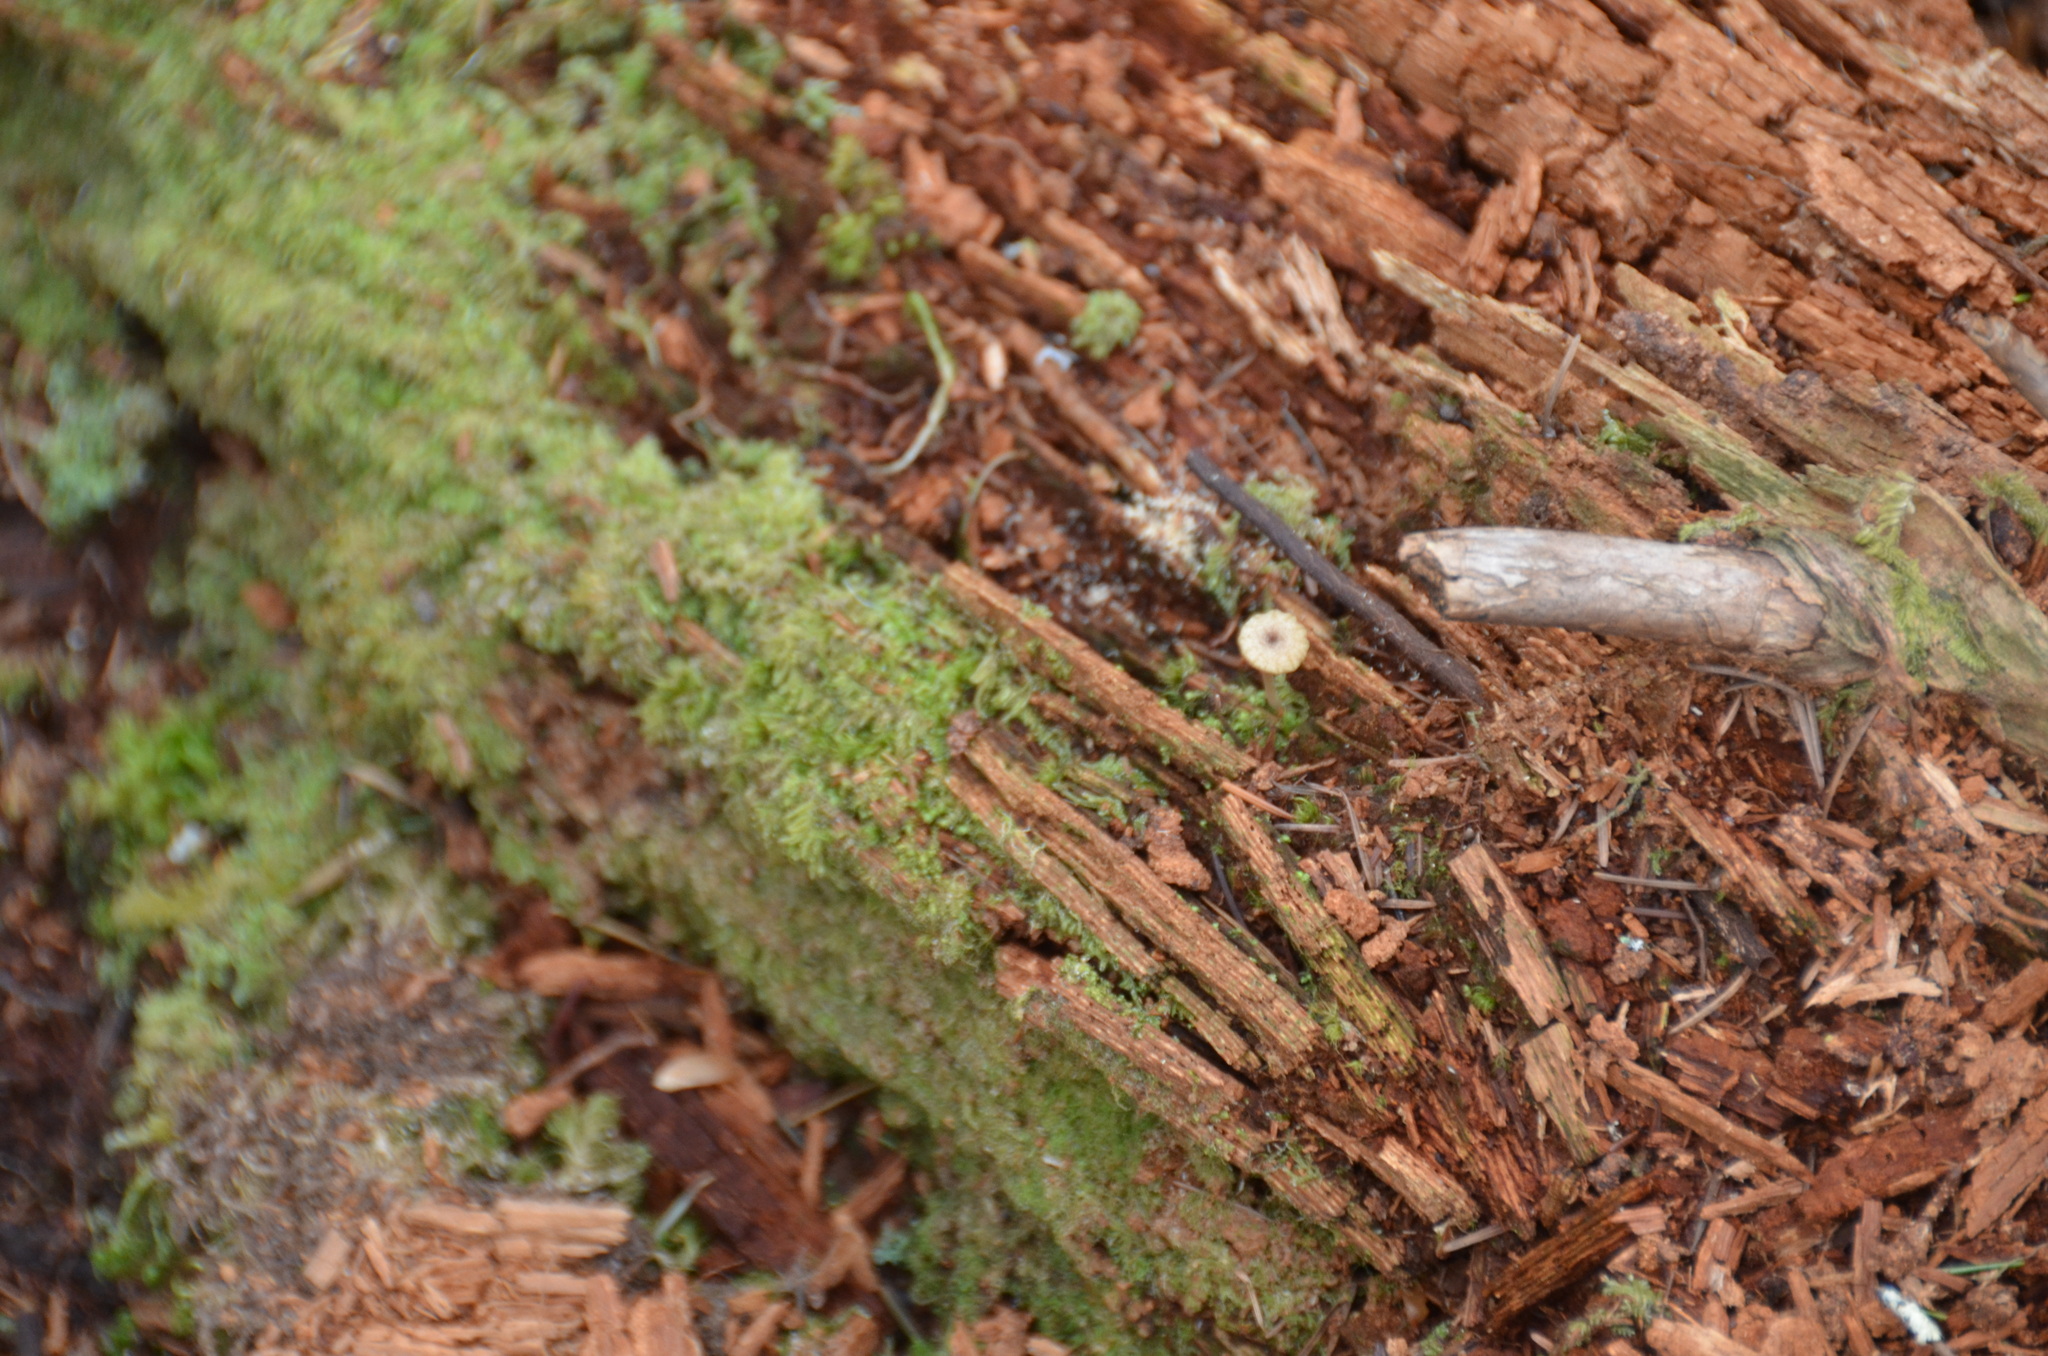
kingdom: Fungi
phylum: Basidiomycota
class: Agaricomycetes
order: Agaricales
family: Hygrophoraceae
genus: Lichenomphalia
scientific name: Lichenomphalia
